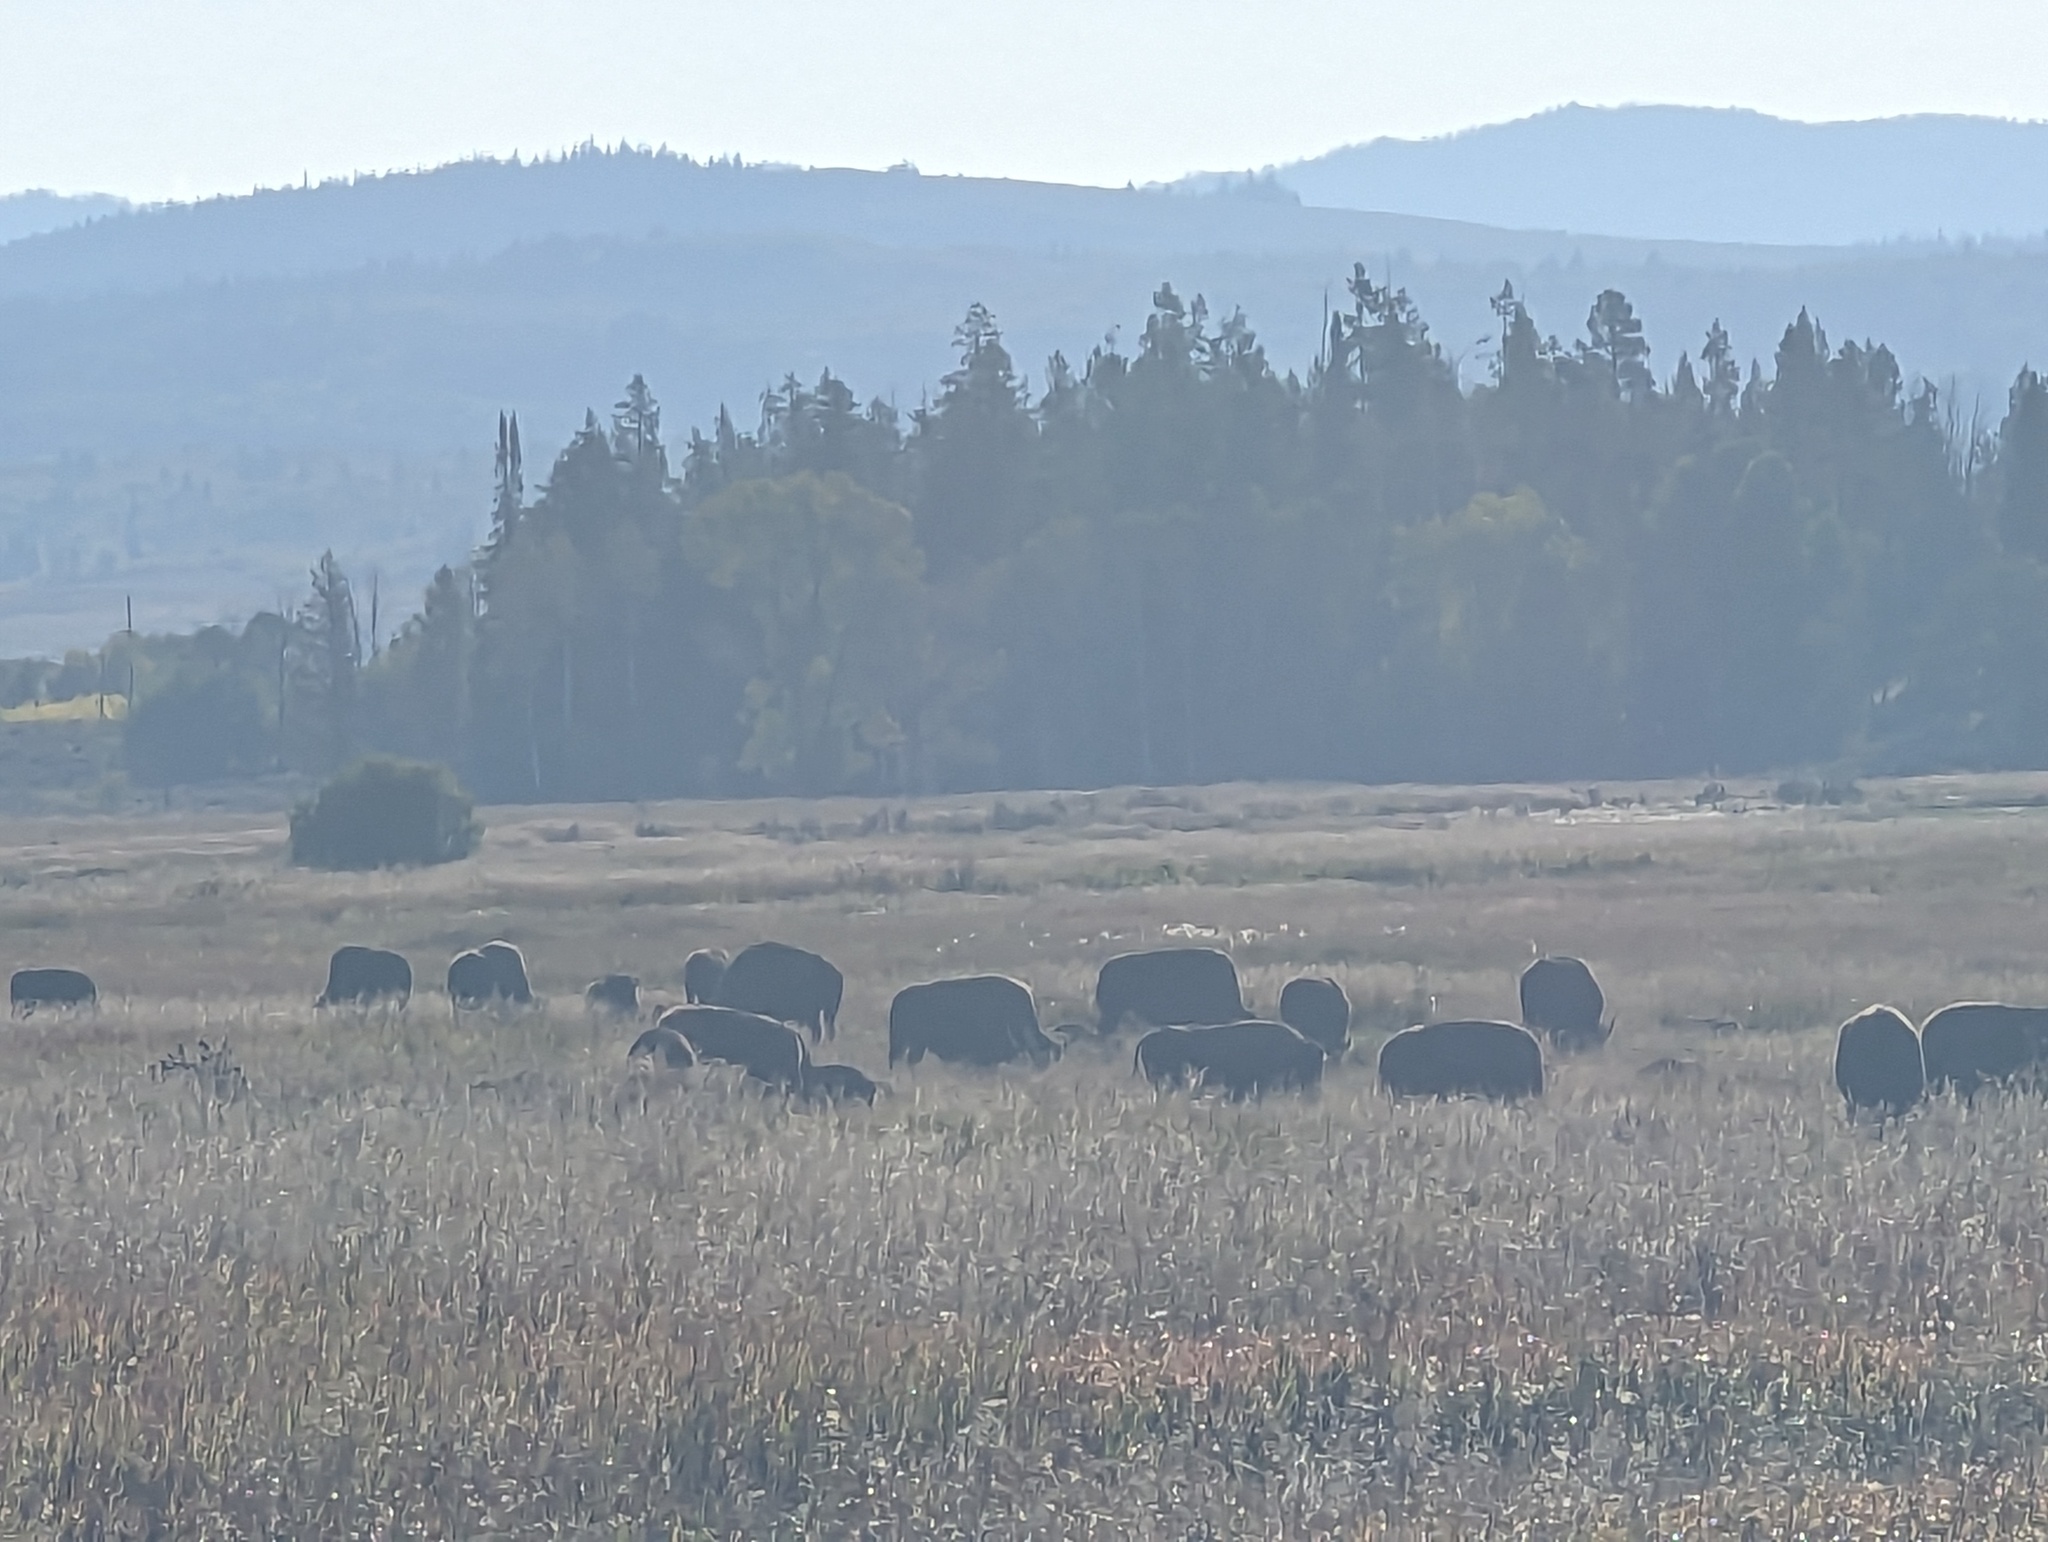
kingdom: Animalia
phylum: Chordata
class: Mammalia
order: Artiodactyla
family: Bovidae
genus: Bison
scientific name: Bison bison
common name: American bison
